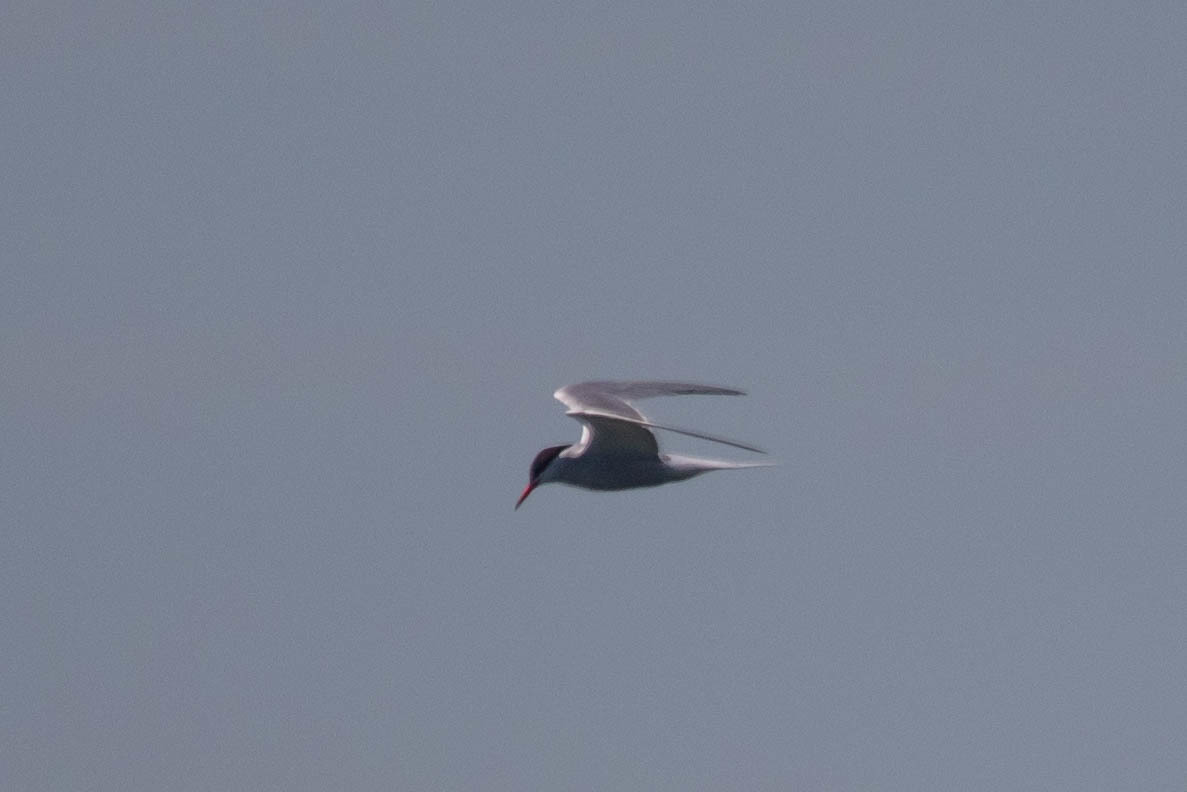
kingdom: Animalia
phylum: Chordata
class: Aves
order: Charadriiformes
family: Laridae
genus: Sterna
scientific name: Sterna hirundo
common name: Common tern
